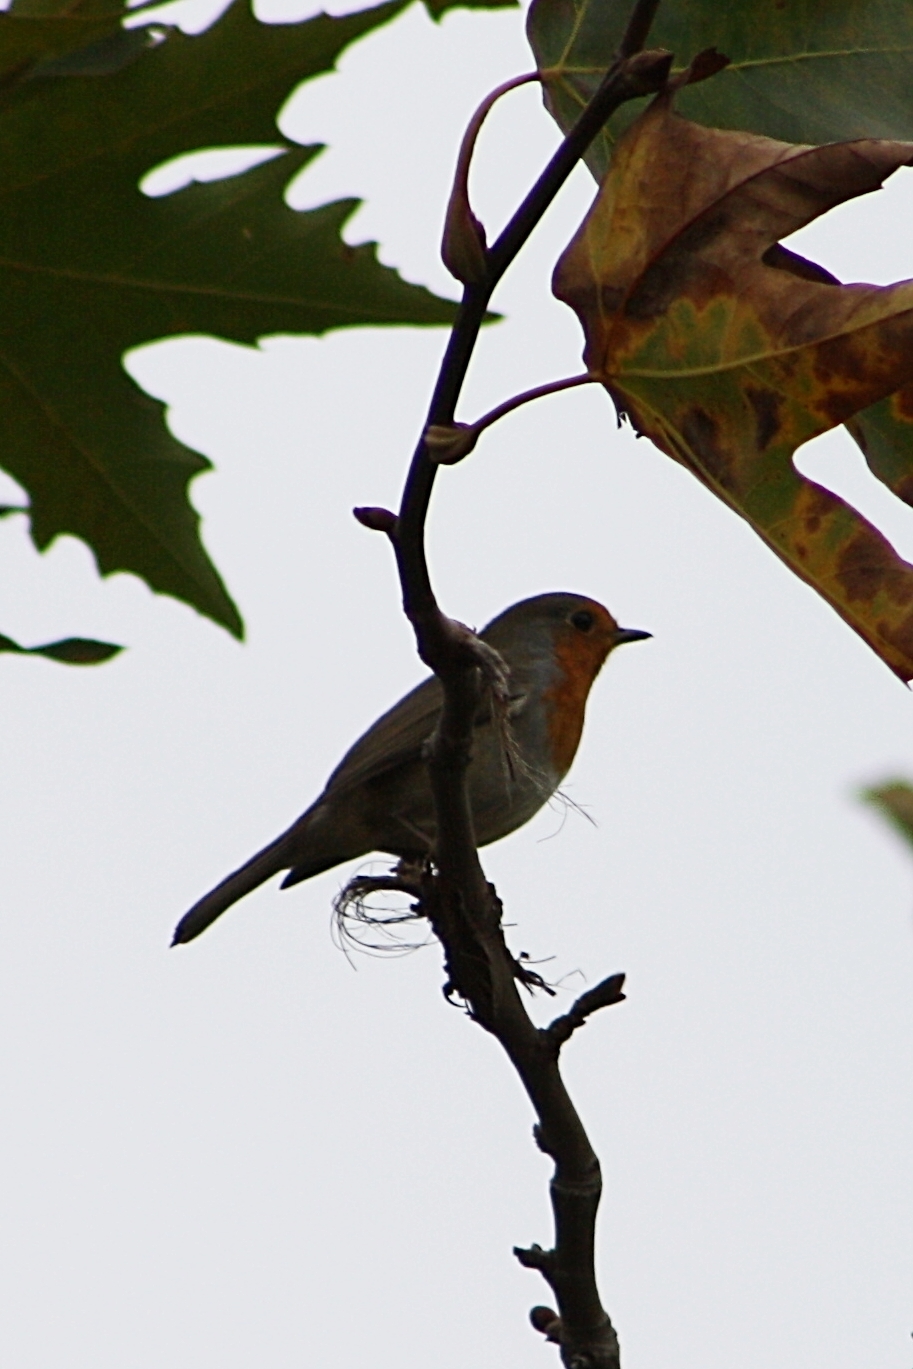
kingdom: Animalia
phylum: Chordata
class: Aves
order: Passeriformes
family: Muscicapidae
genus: Erithacus
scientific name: Erithacus rubecula
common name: European robin
